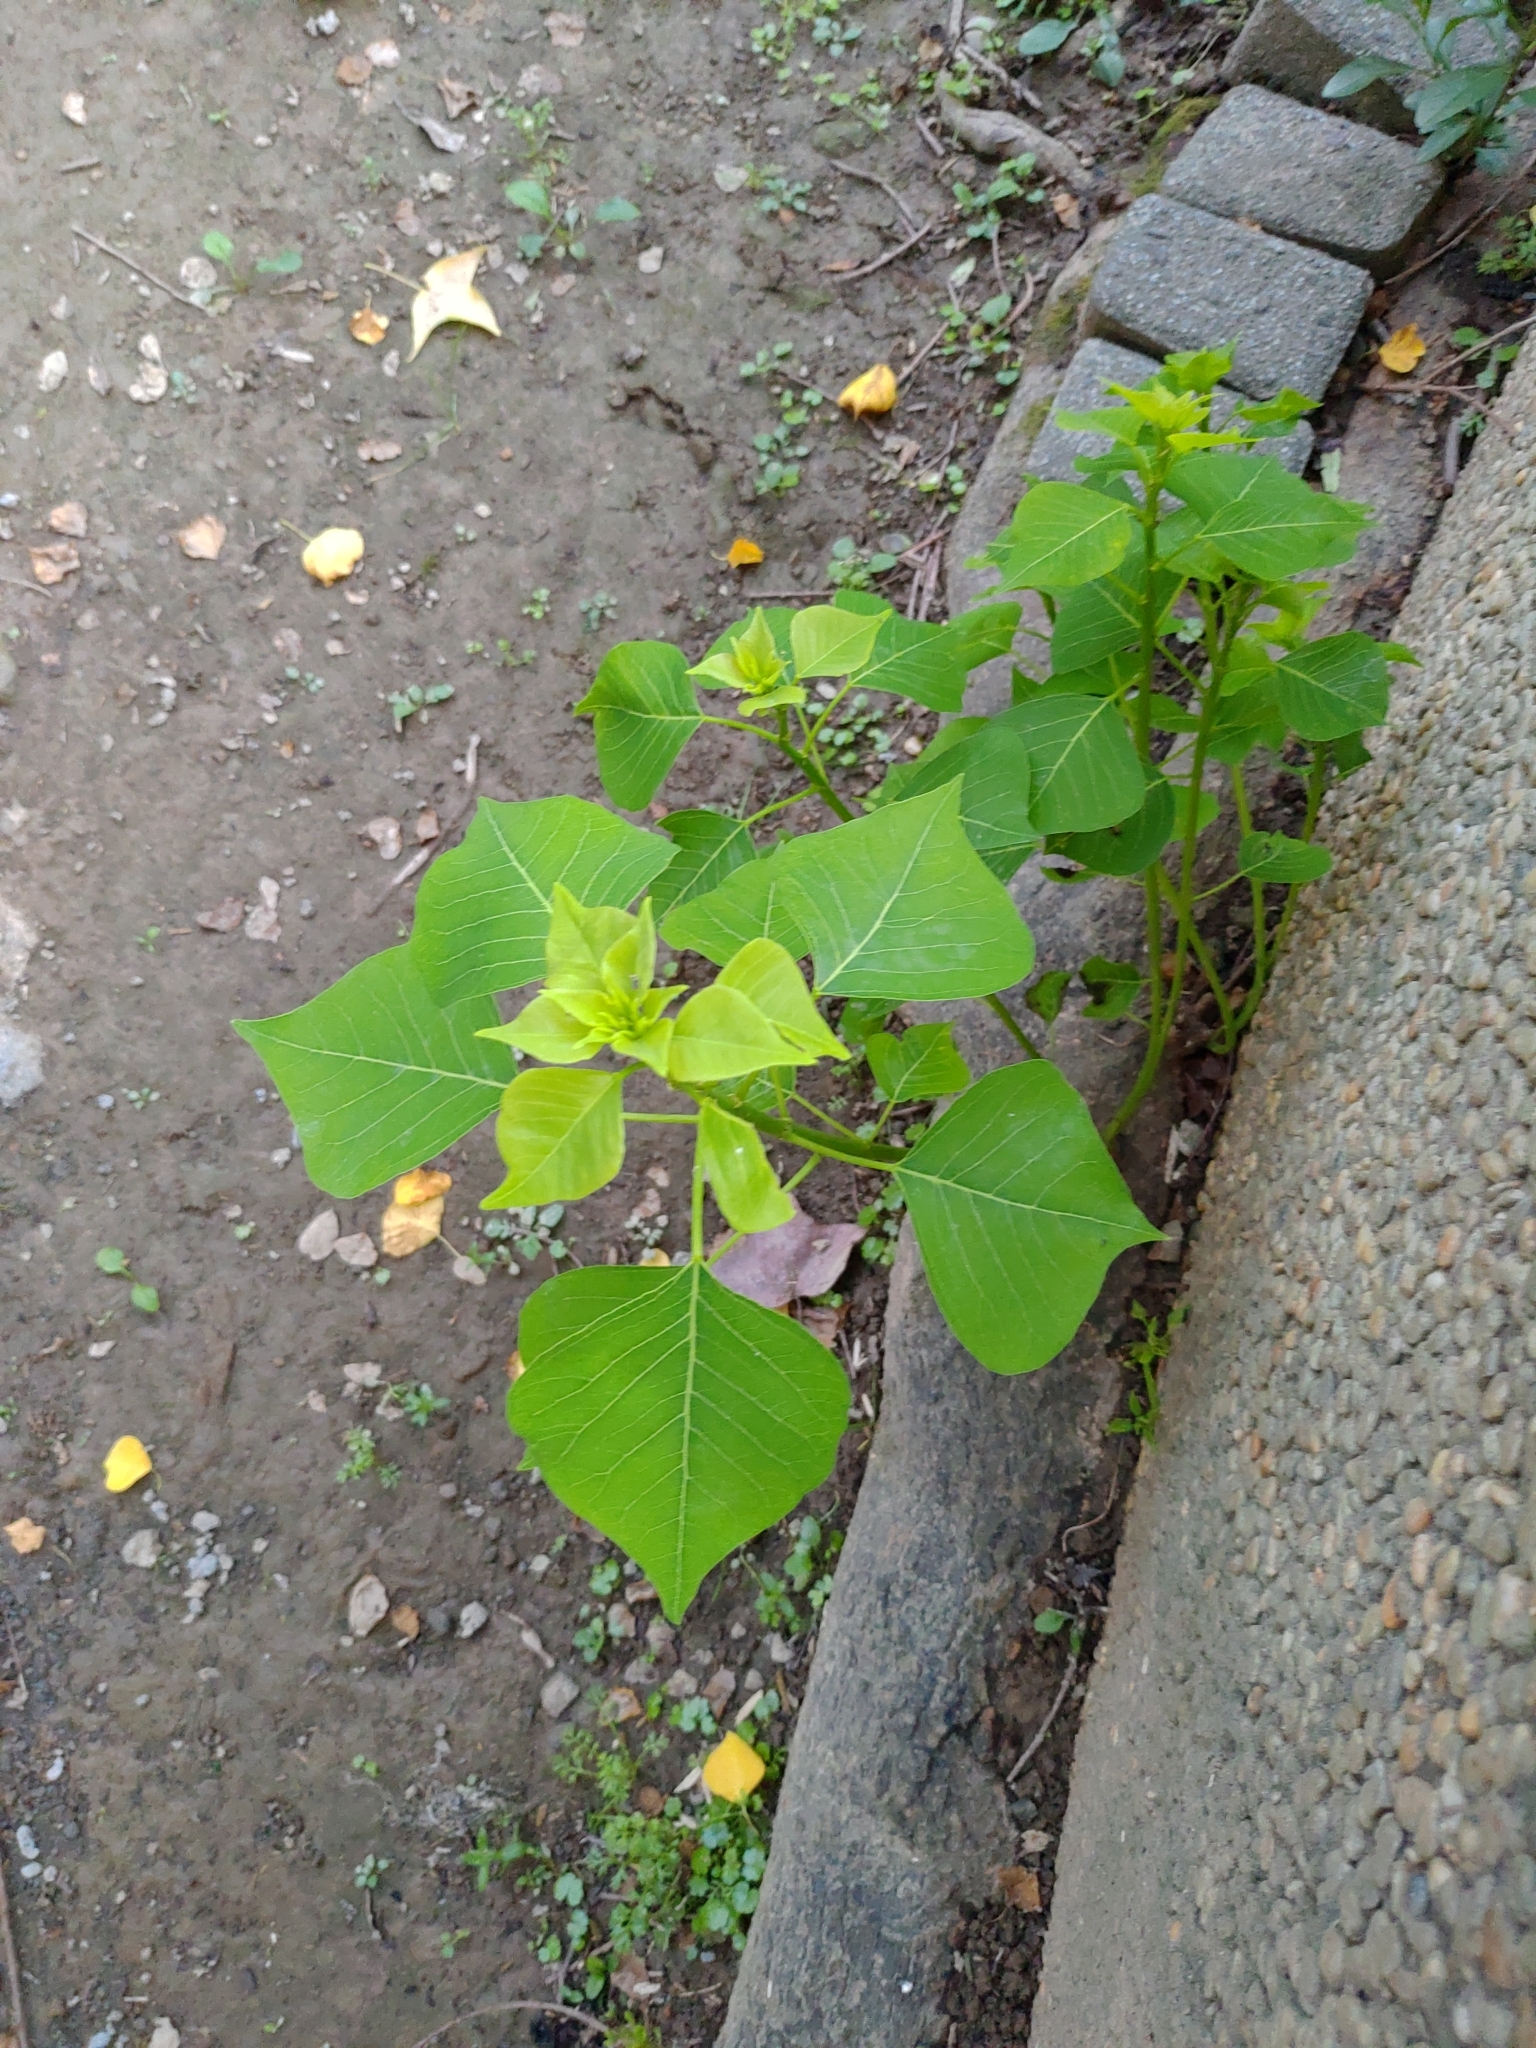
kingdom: Plantae
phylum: Tracheophyta
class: Magnoliopsida
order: Malpighiales
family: Euphorbiaceae
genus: Triadica
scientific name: Triadica sebifera
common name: Chinese tallow
